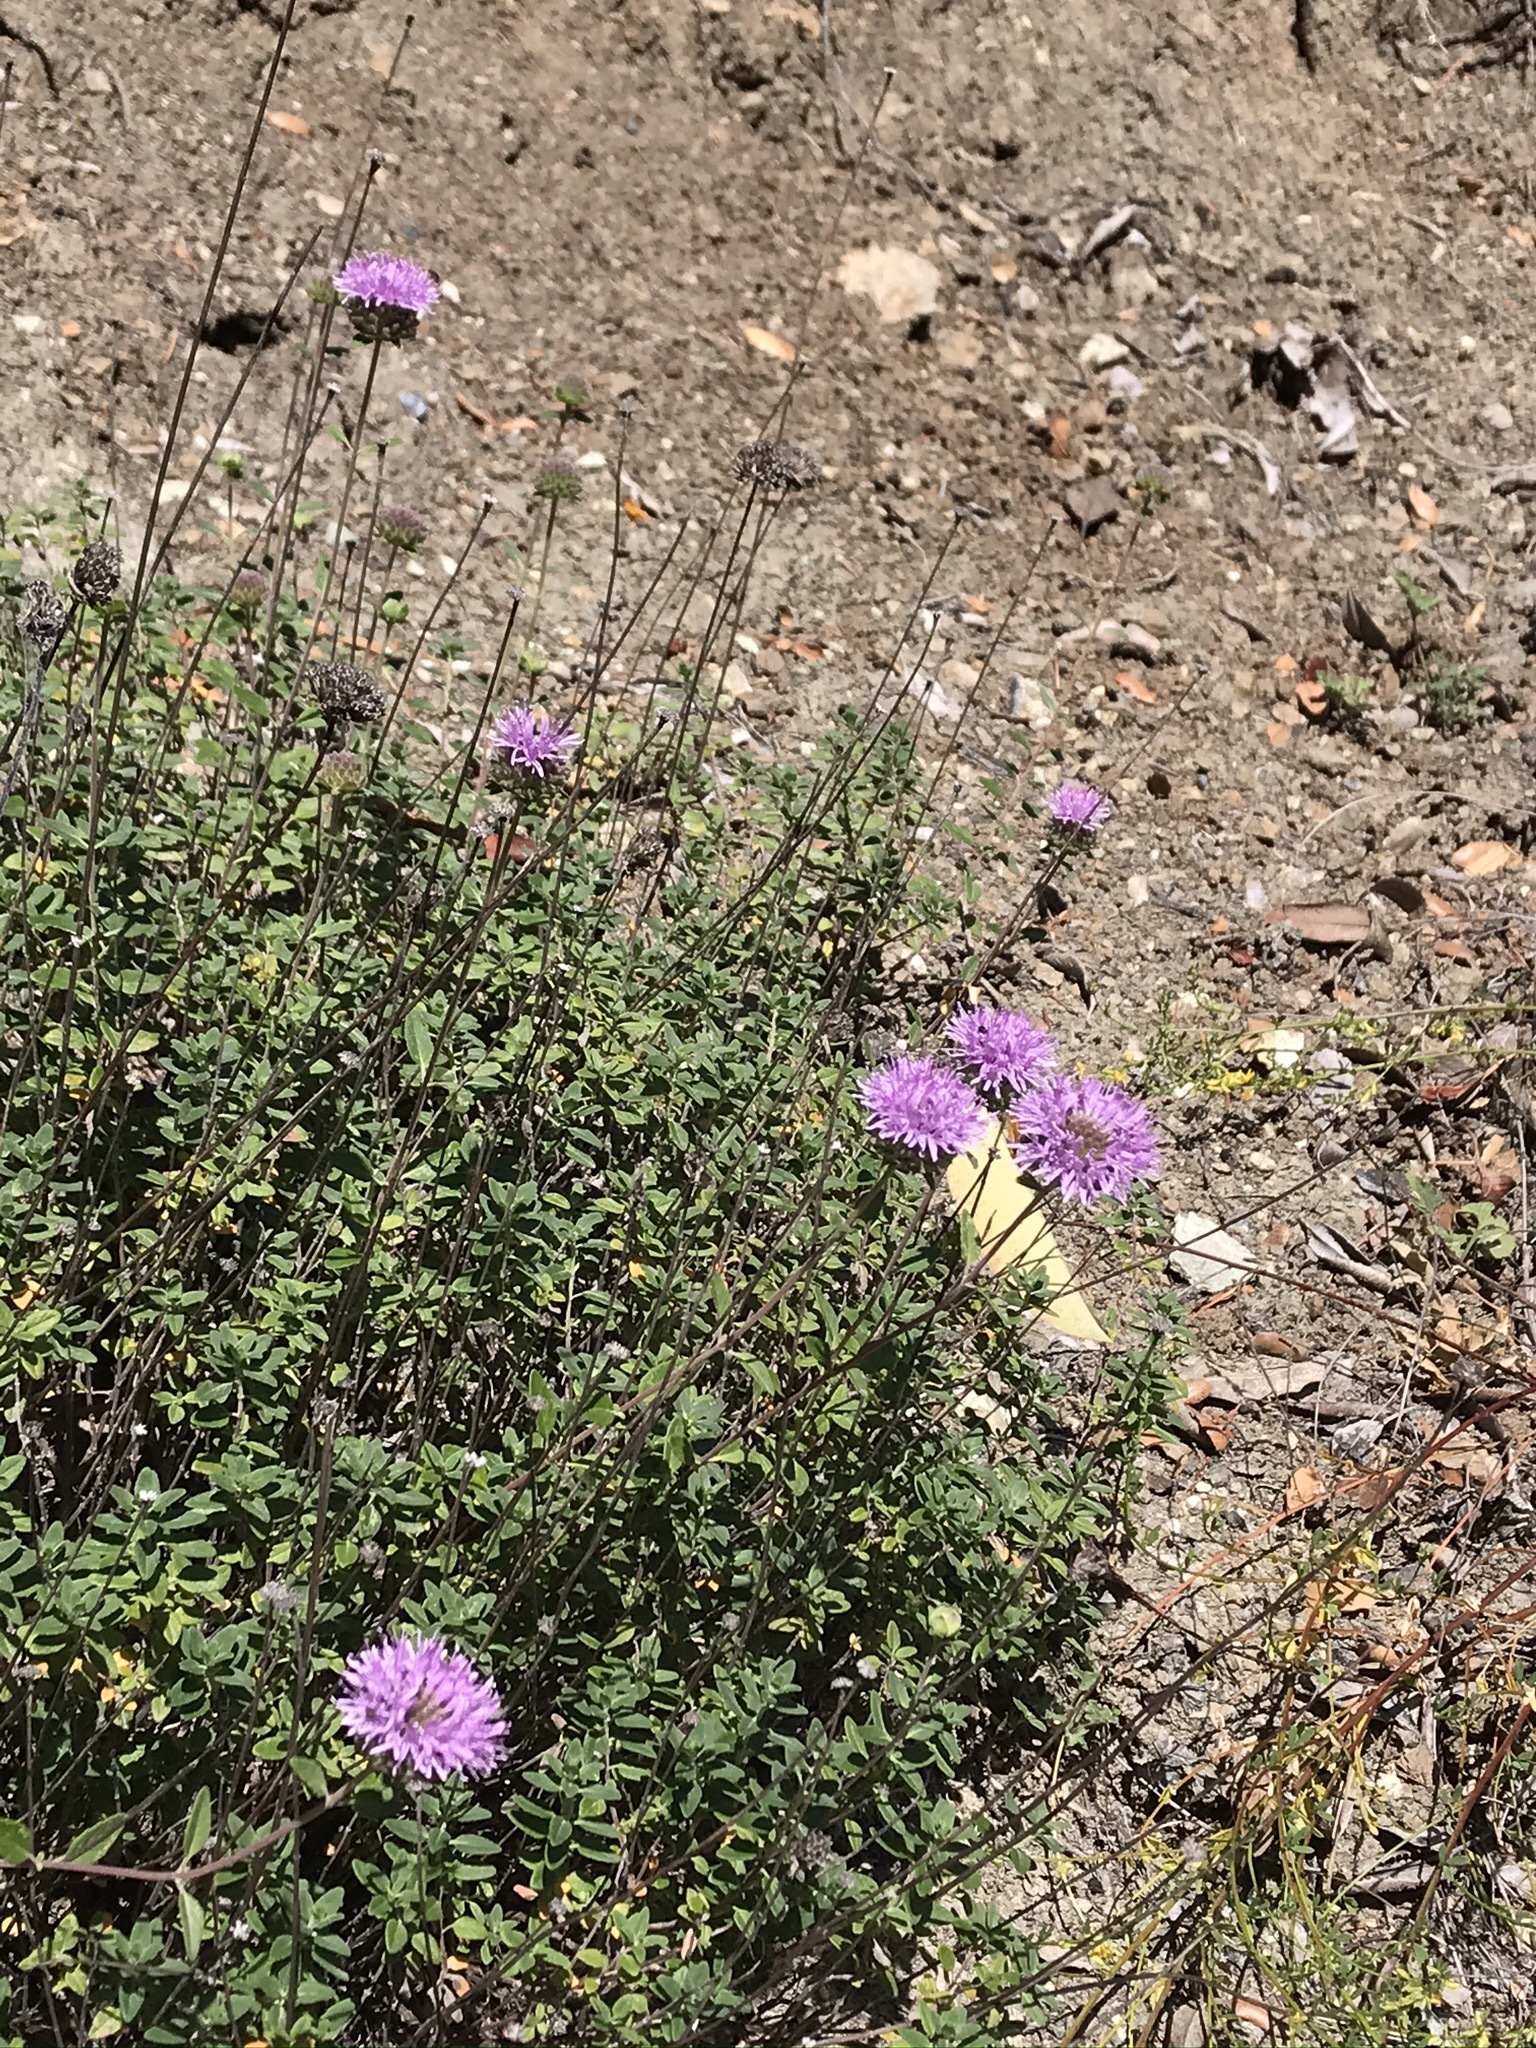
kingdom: Plantae
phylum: Tracheophyta
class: Magnoliopsida
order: Lamiales
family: Lamiaceae
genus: Monardella
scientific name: Monardella viridis
